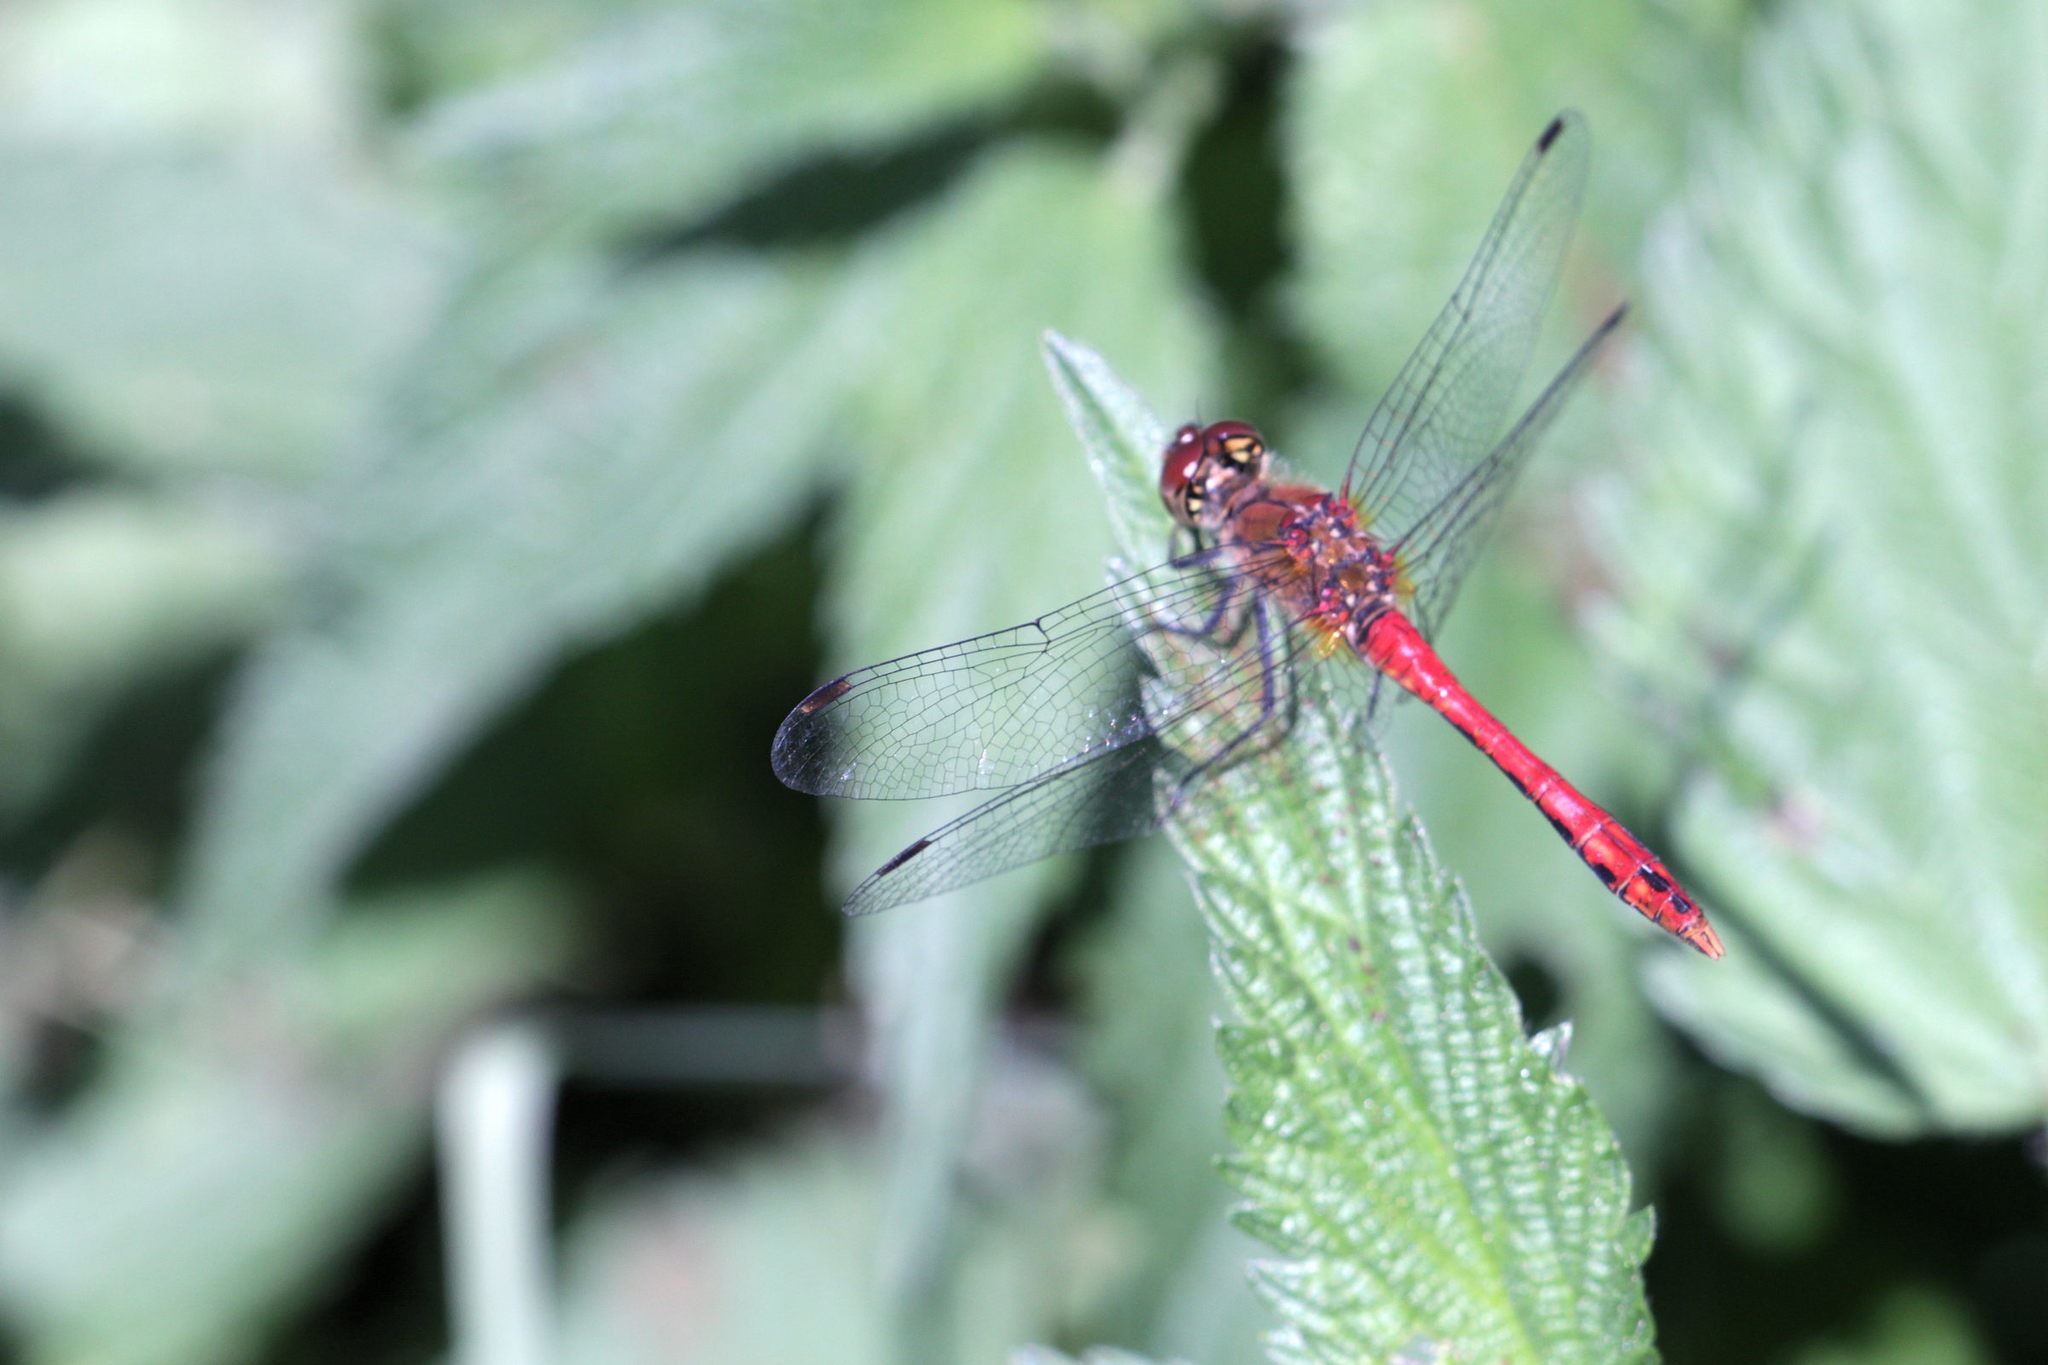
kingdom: Animalia
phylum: Arthropoda
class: Insecta
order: Odonata
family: Libellulidae
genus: Sympetrum
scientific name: Sympetrum sanguineum
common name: Ruddy darter
